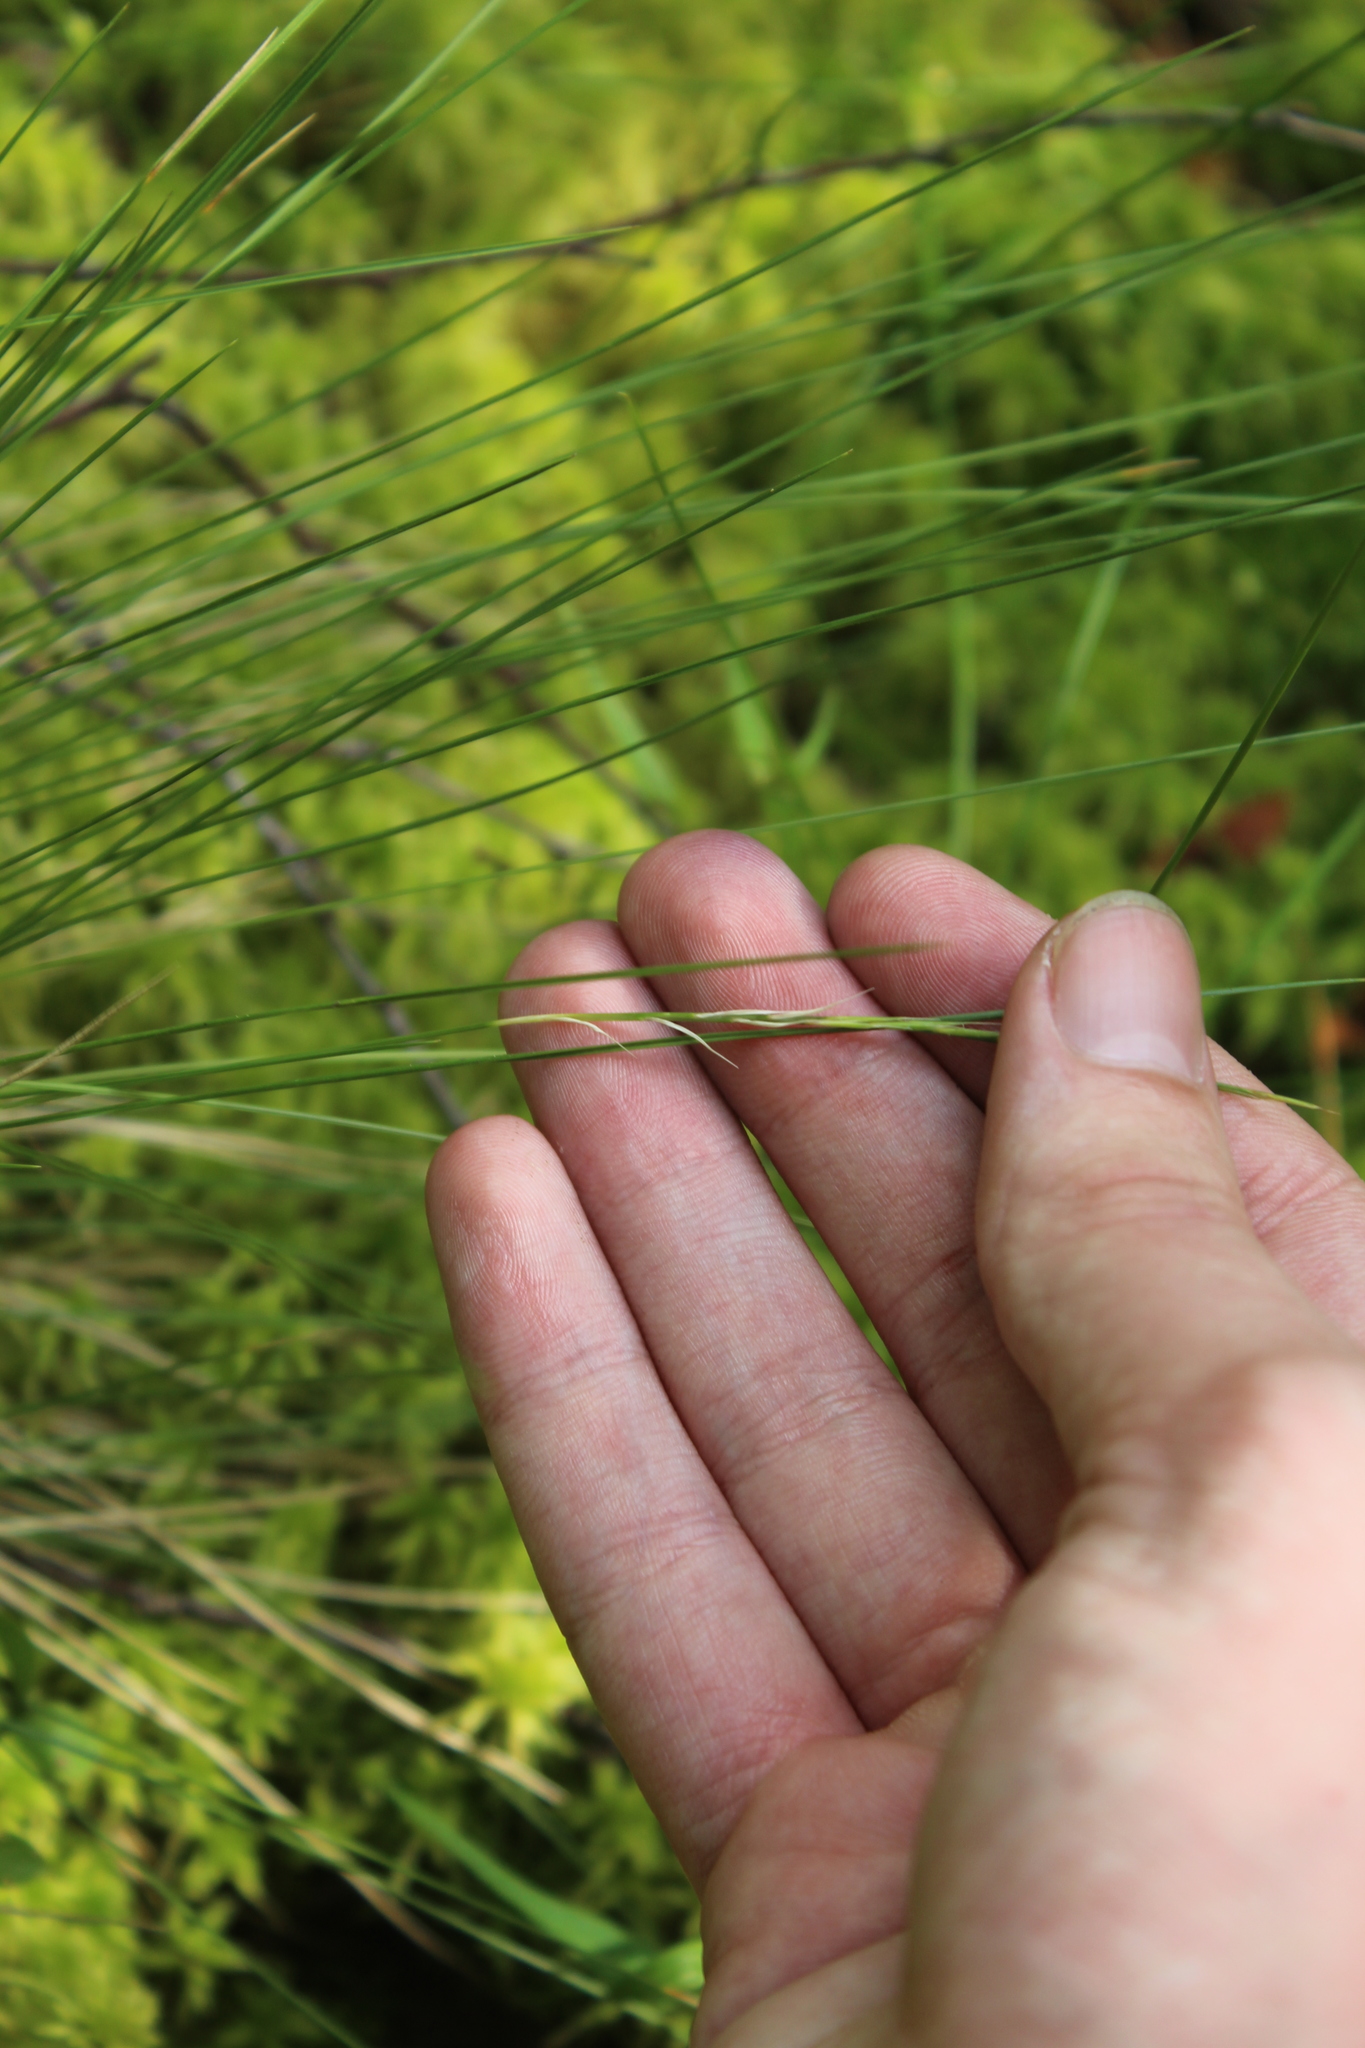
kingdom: Plantae
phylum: Tracheophyta
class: Liliopsida
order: Poales
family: Poaceae
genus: Nardus
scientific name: Nardus stricta
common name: Mat-grass
